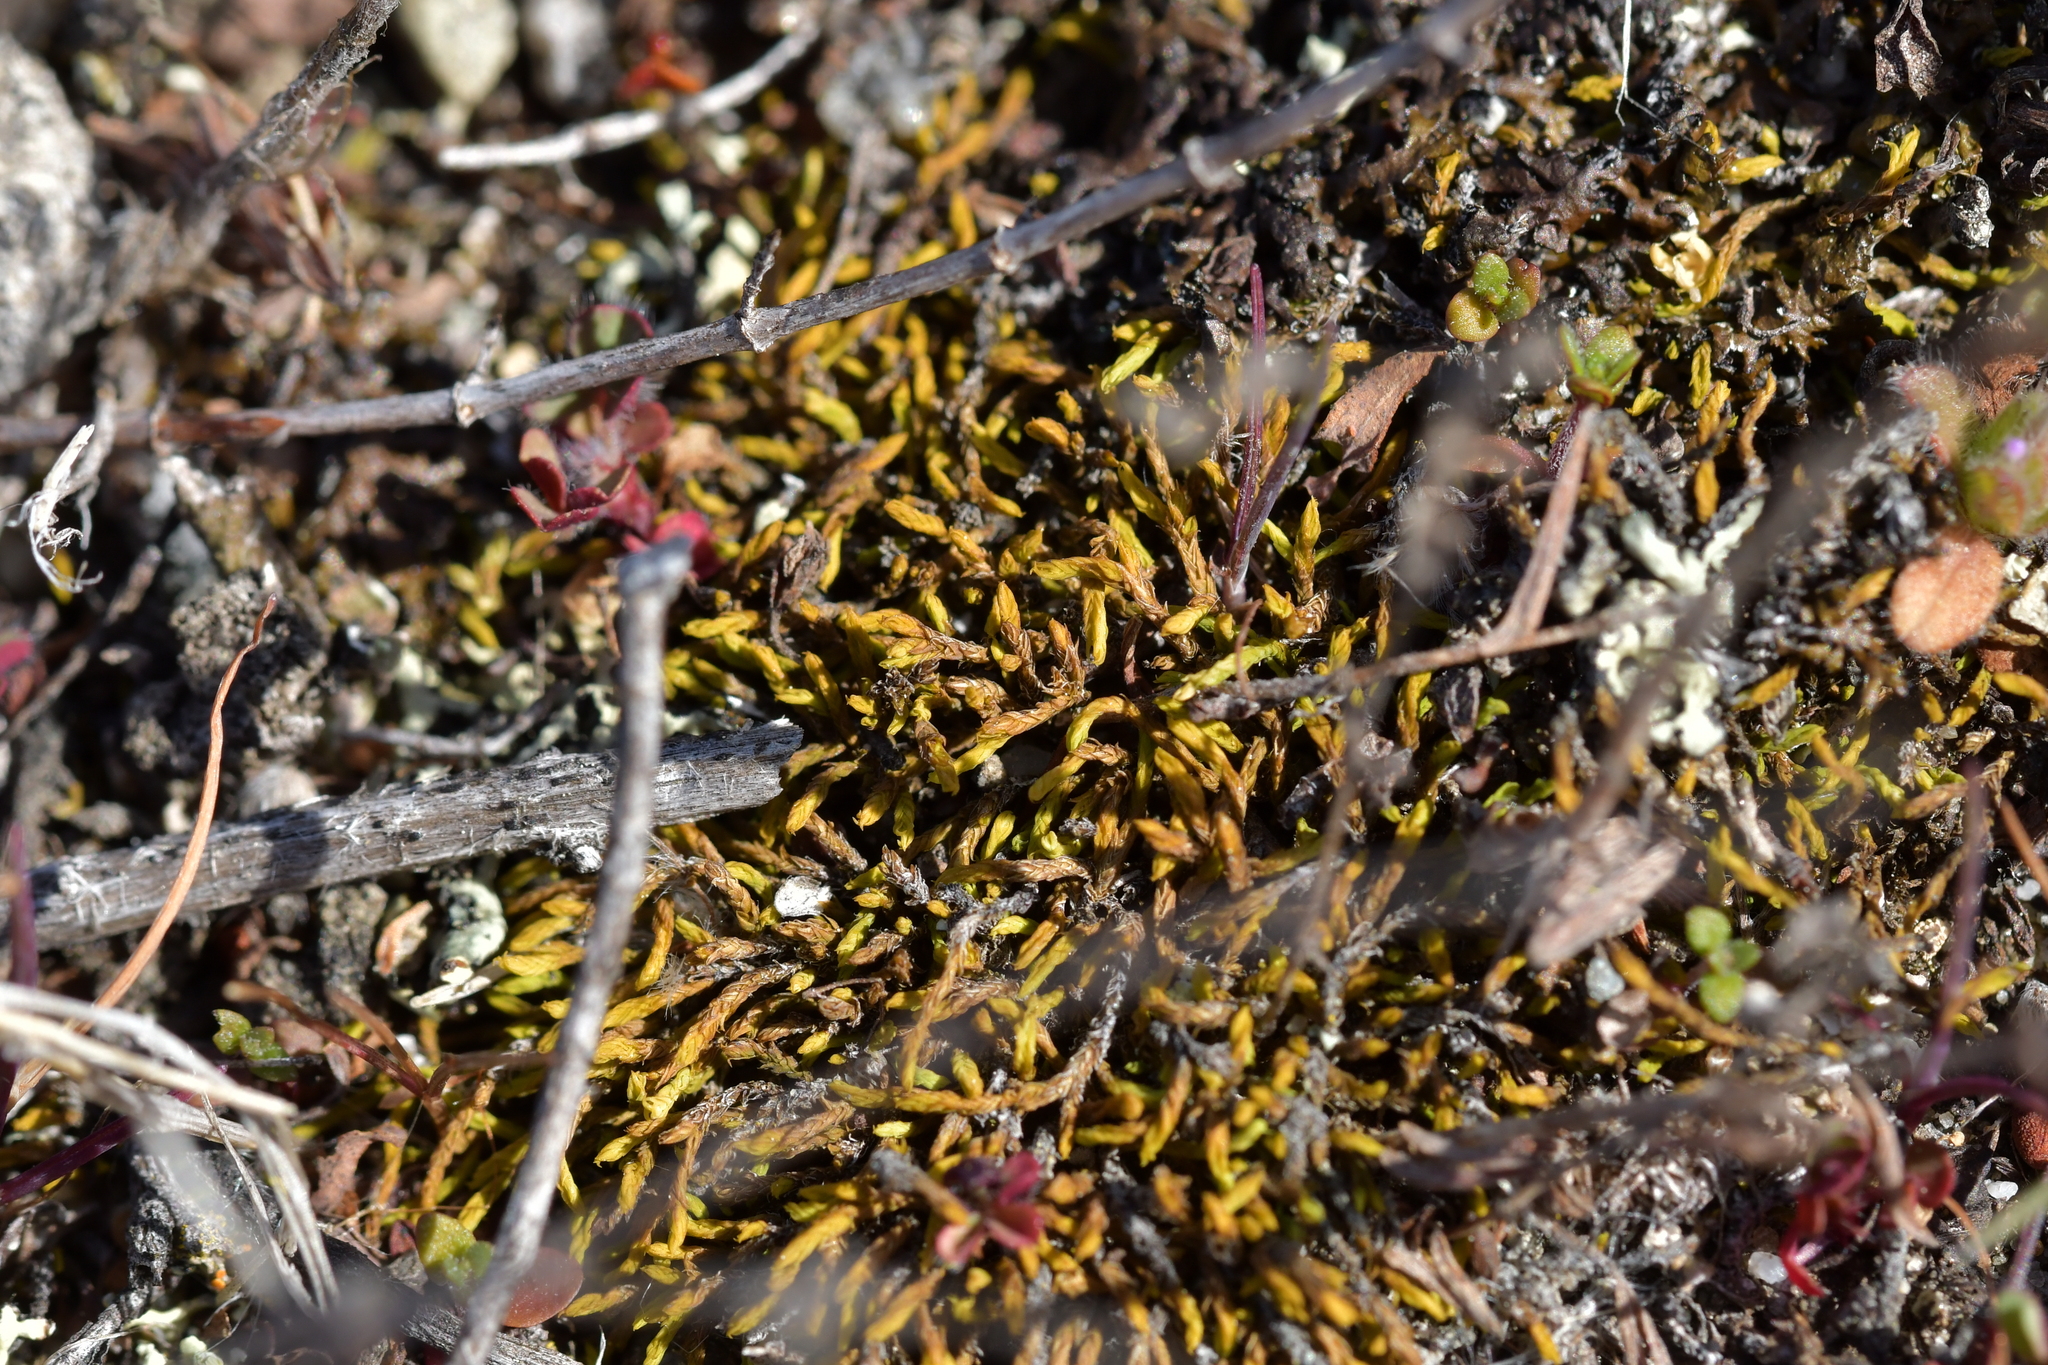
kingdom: Plantae
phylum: Bryophyta
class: Bryopsida
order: Pottiales
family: Pottiaceae
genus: Triquetrella
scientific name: Triquetrella papillata
